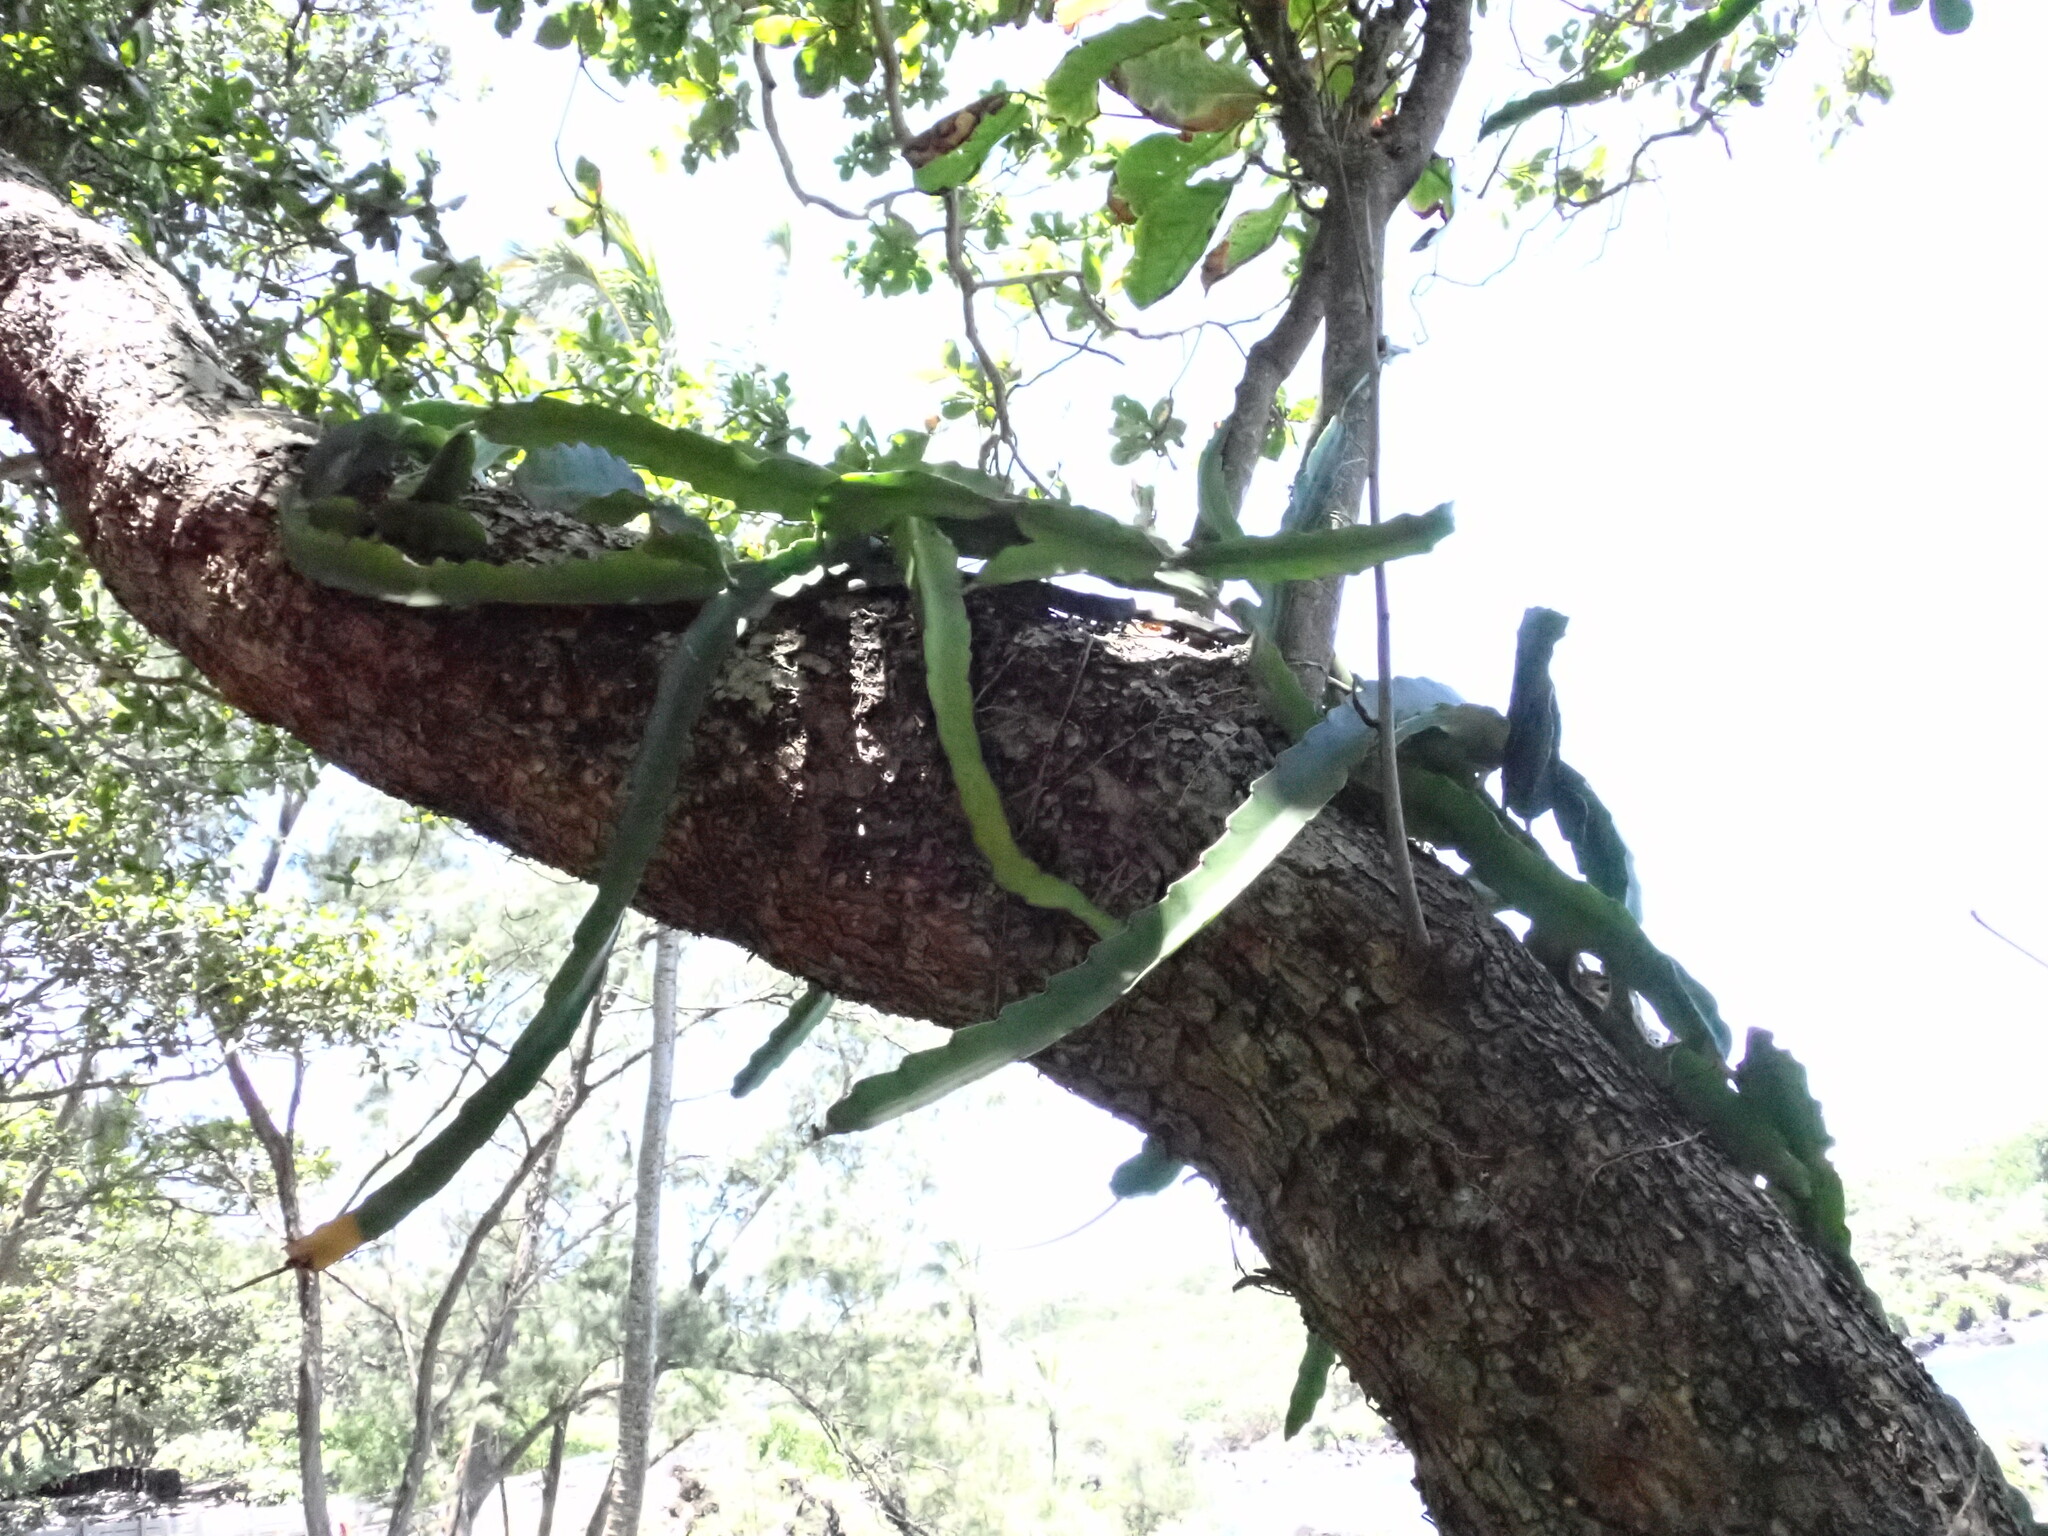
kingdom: Plantae
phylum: Tracheophyta
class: Magnoliopsida
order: Caryophyllales
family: Cactaceae
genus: Selenicereus
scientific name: Selenicereus undatus
